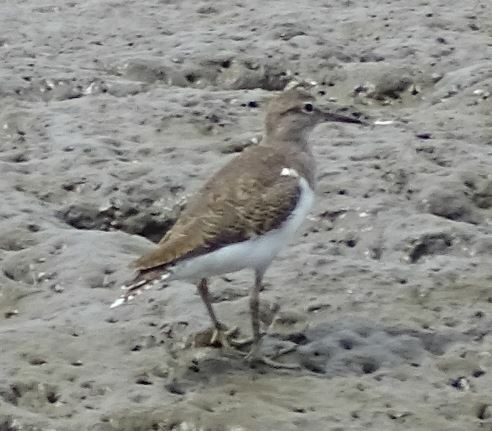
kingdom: Animalia
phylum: Chordata
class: Aves
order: Charadriiformes
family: Scolopacidae
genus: Actitis
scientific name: Actitis hypoleucos
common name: Common sandpiper
